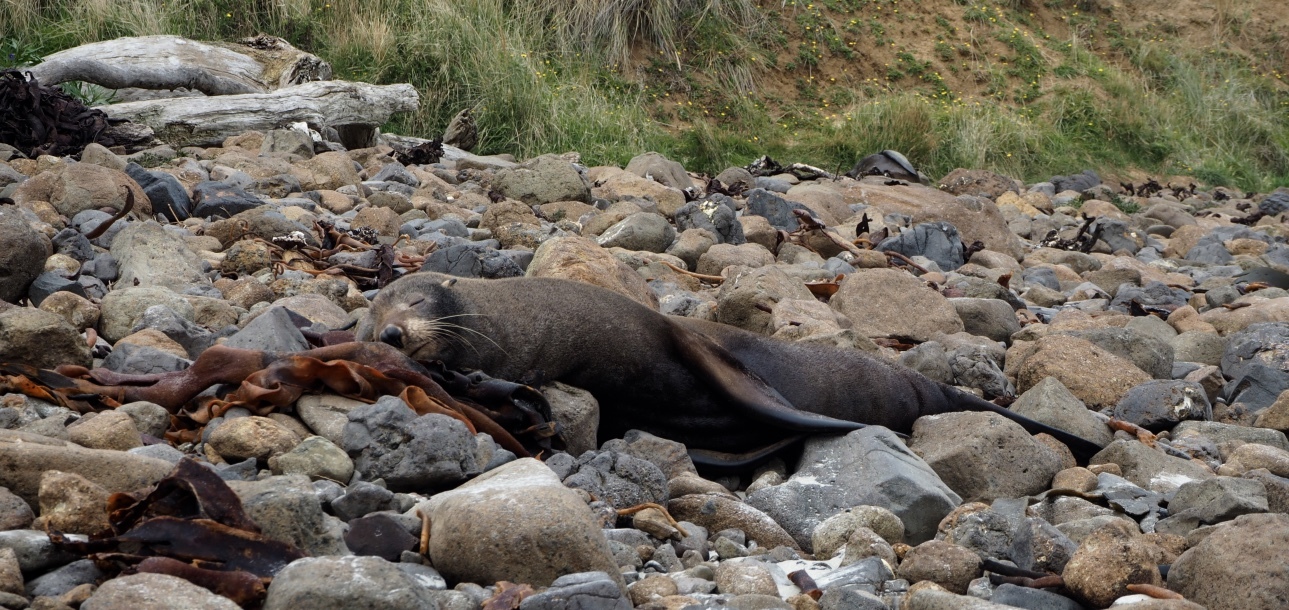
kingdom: Animalia
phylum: Chordata
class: Mammalia
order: Carnivora
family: Otariidae
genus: Arctocephalus
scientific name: Arctocephalus forsteri
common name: New zealand fur seal
